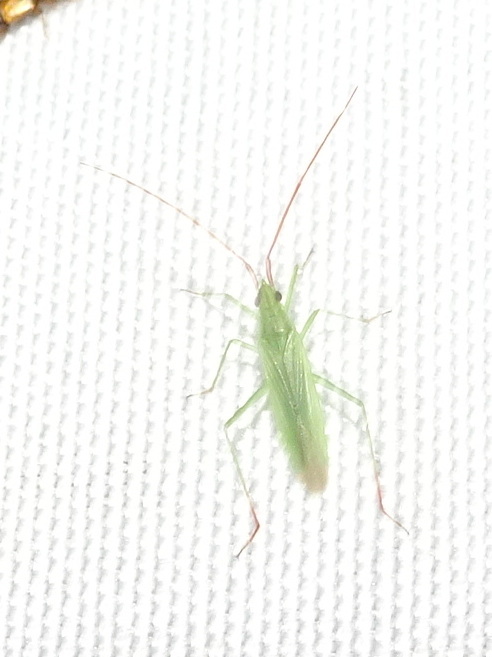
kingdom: Animalia
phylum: Arthropoda
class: Insecta
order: Hemiptera
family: Miridae
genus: Trigonotylus
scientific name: Trigonotylus caelestialium
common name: Rice leaf bug
